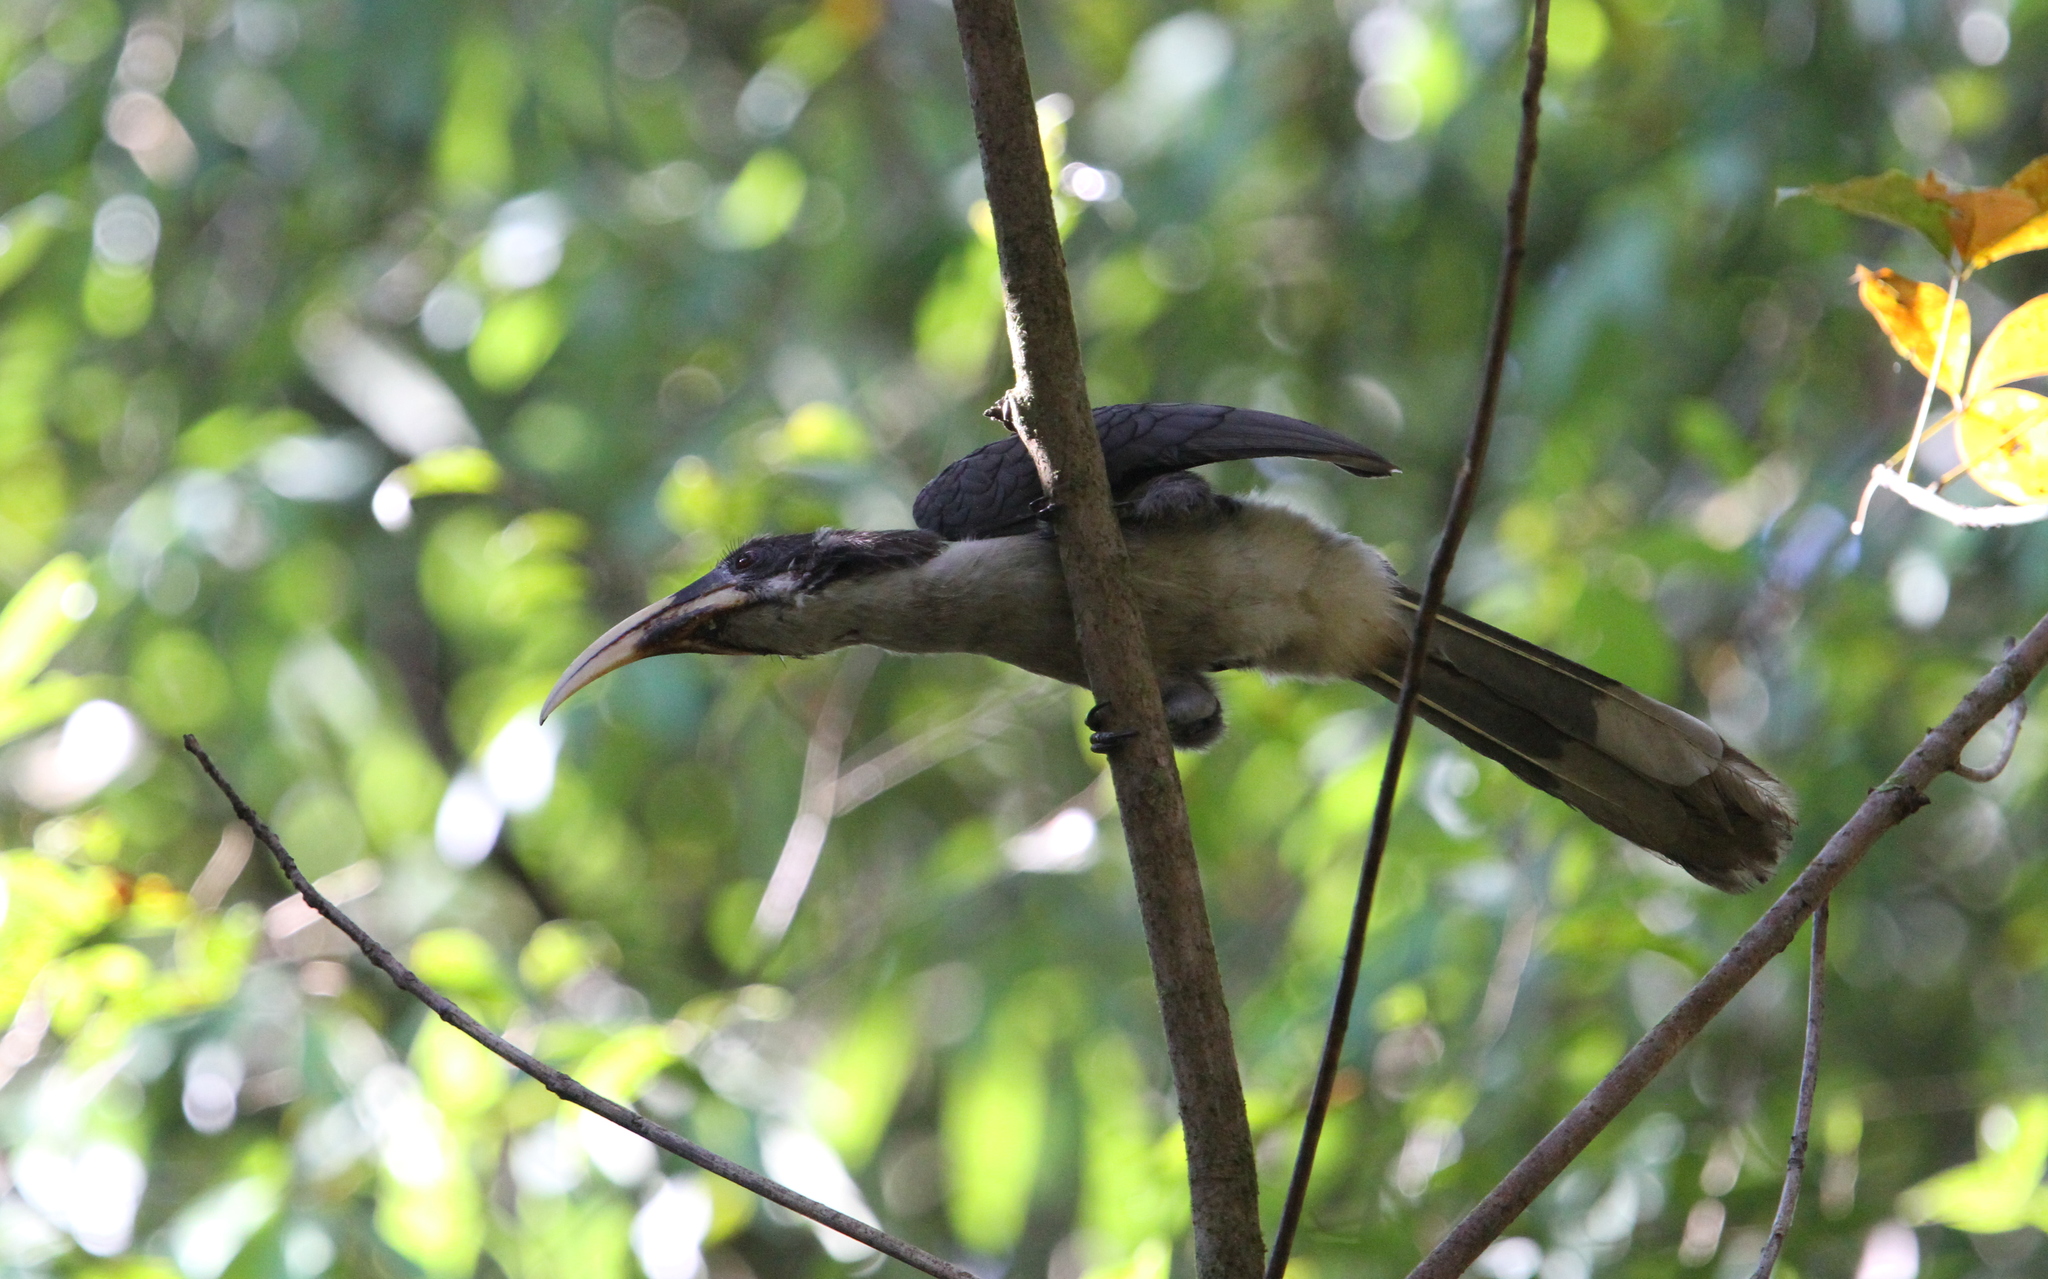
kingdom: Animalia
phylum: Chordata
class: Aves
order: Bucerotiformes
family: Bucerotidae
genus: Ocyceros
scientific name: Ocyceros gingalensis
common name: Sri lanka grey hornbill
